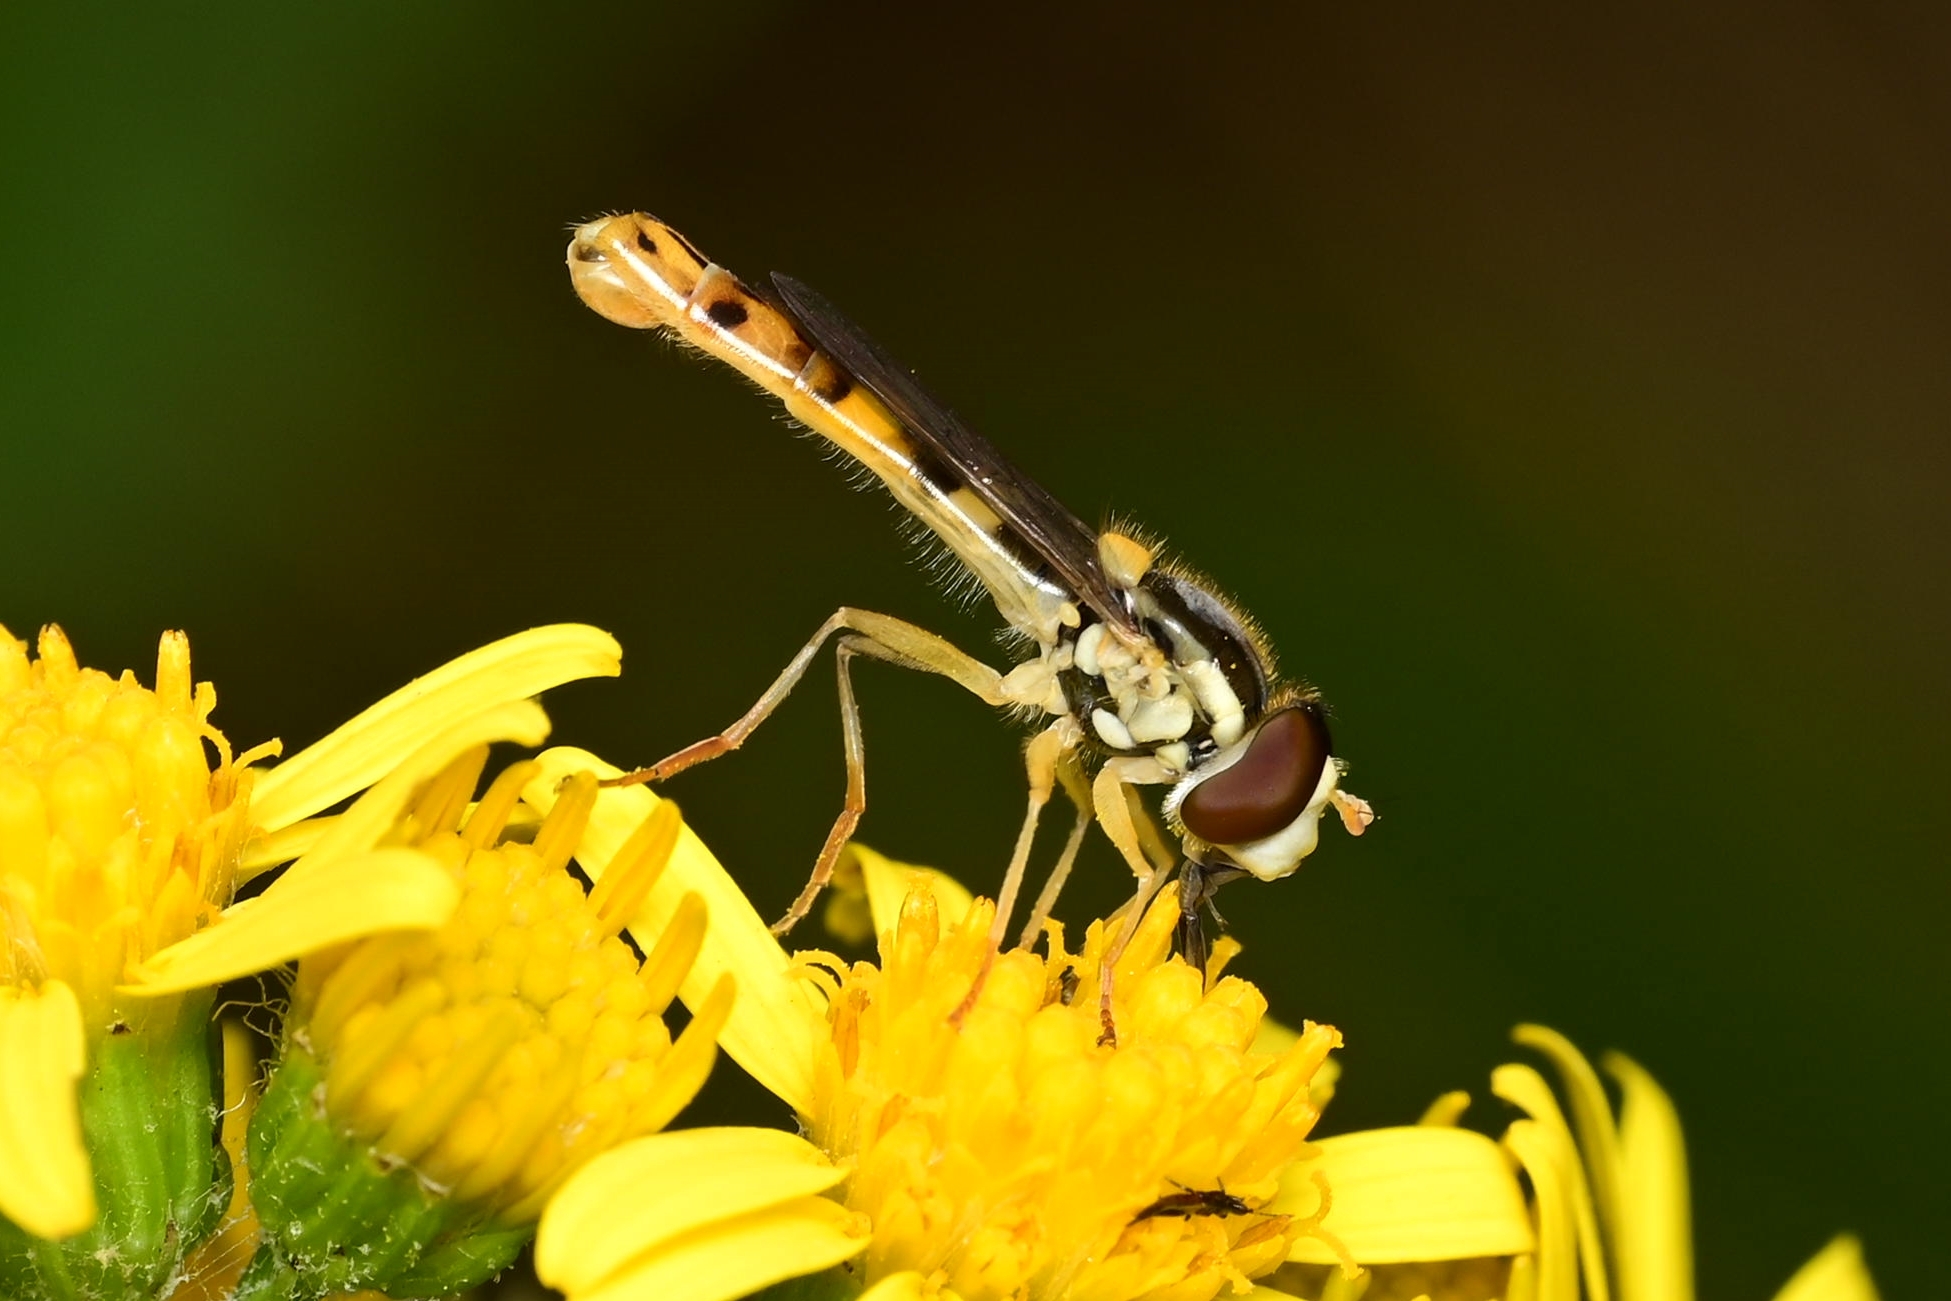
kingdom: Animalia
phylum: Arthropoda
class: Insecta
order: Diptera
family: Syrphidae
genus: Sphaerophoria
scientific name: Sphaerophoria scripta
